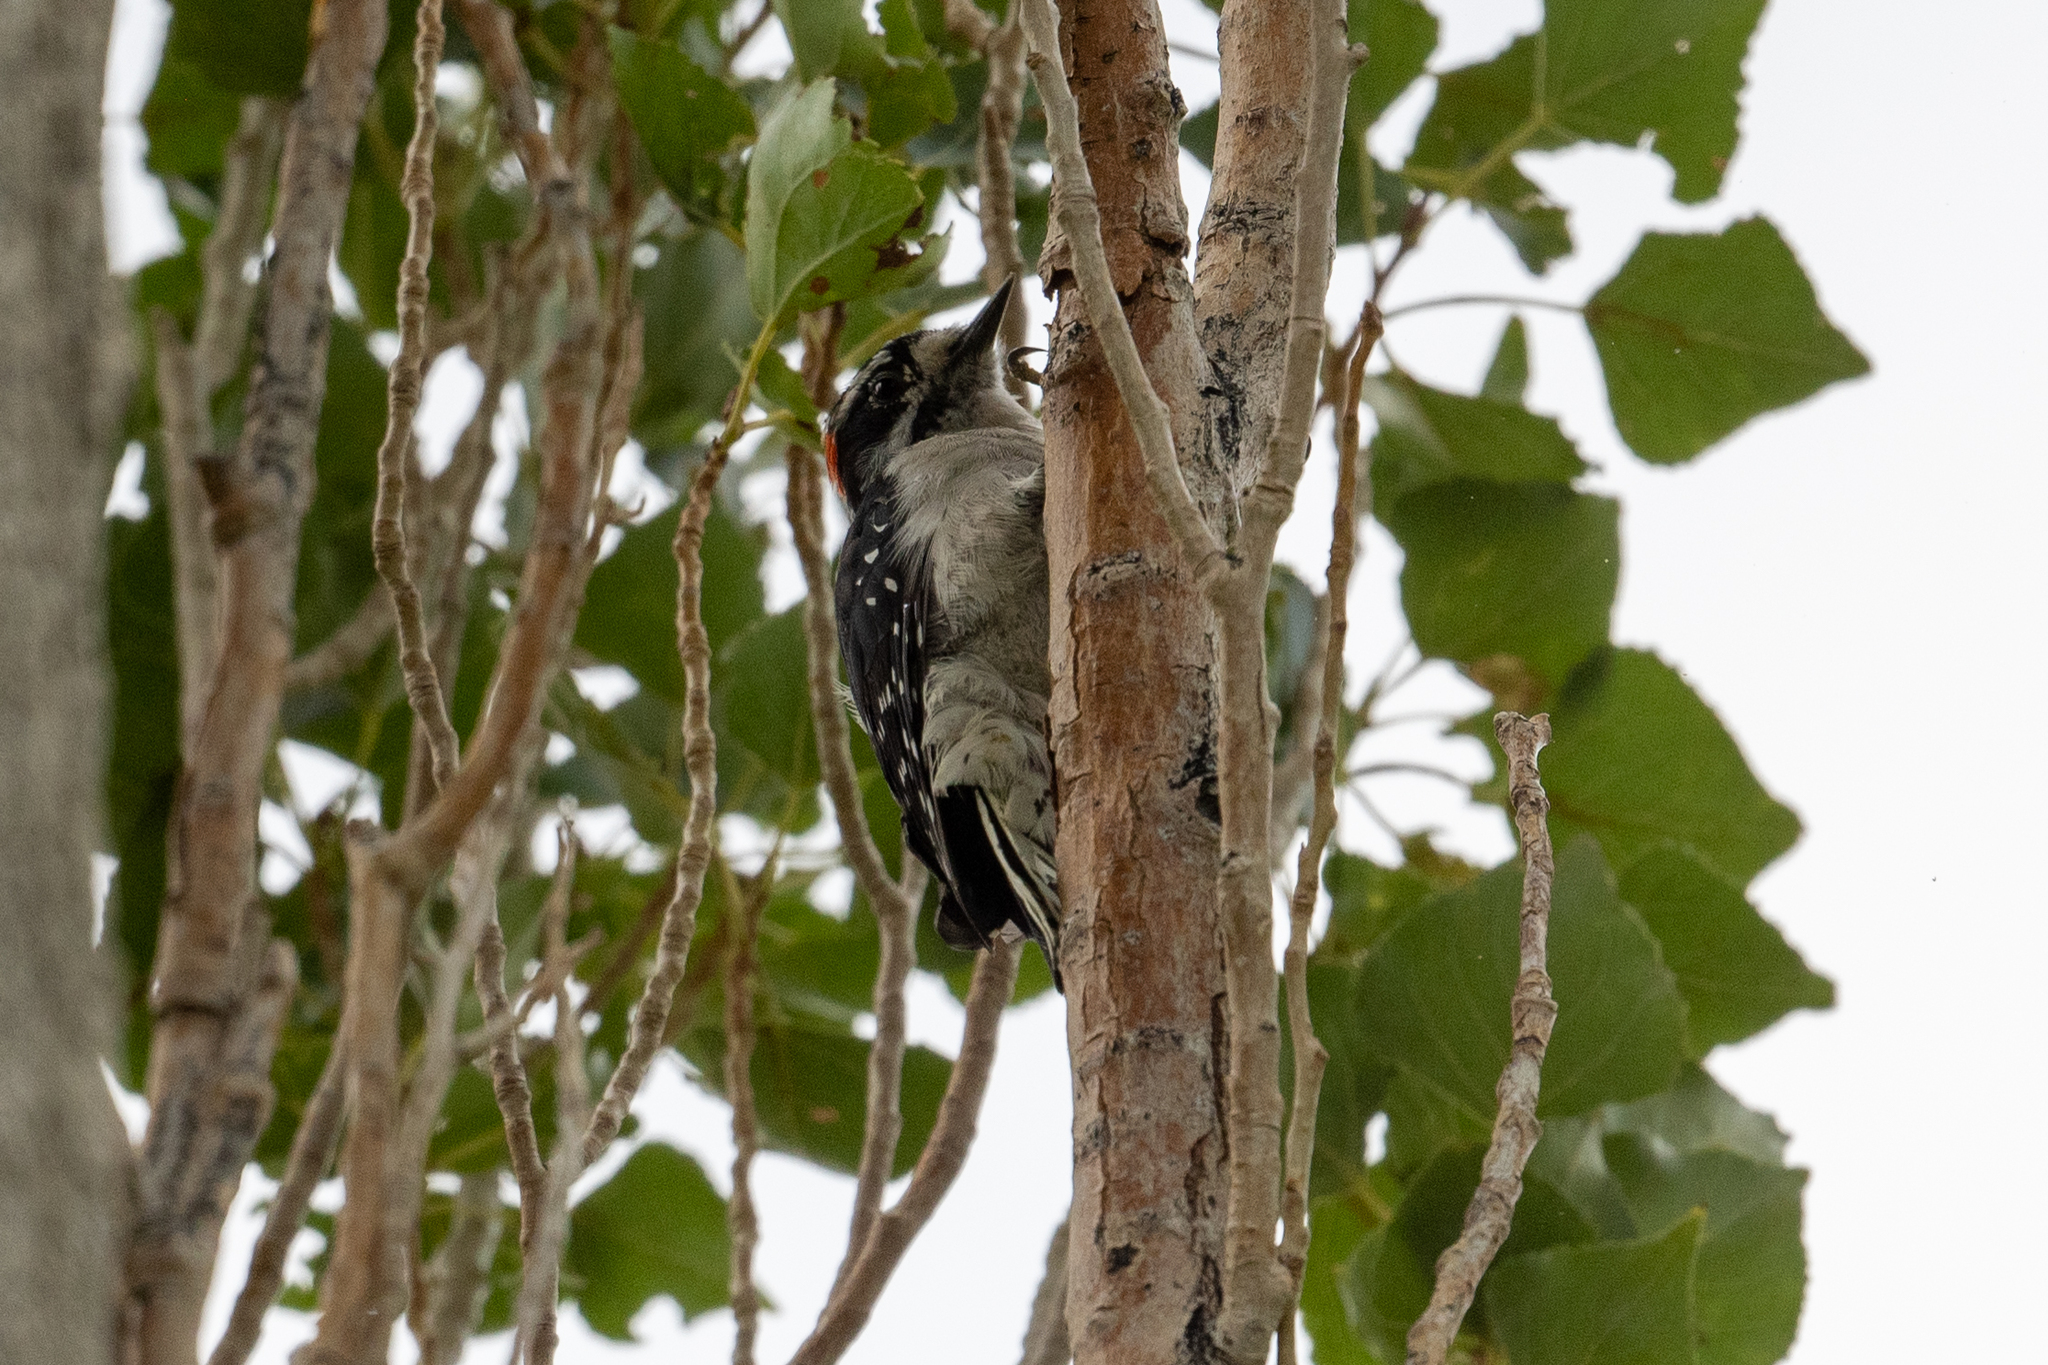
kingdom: Animalia
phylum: Chordata
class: Aves
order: Piciformes
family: Picidae
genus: Dryobates
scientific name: Dryobates pubescens
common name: Downy woodpecker
